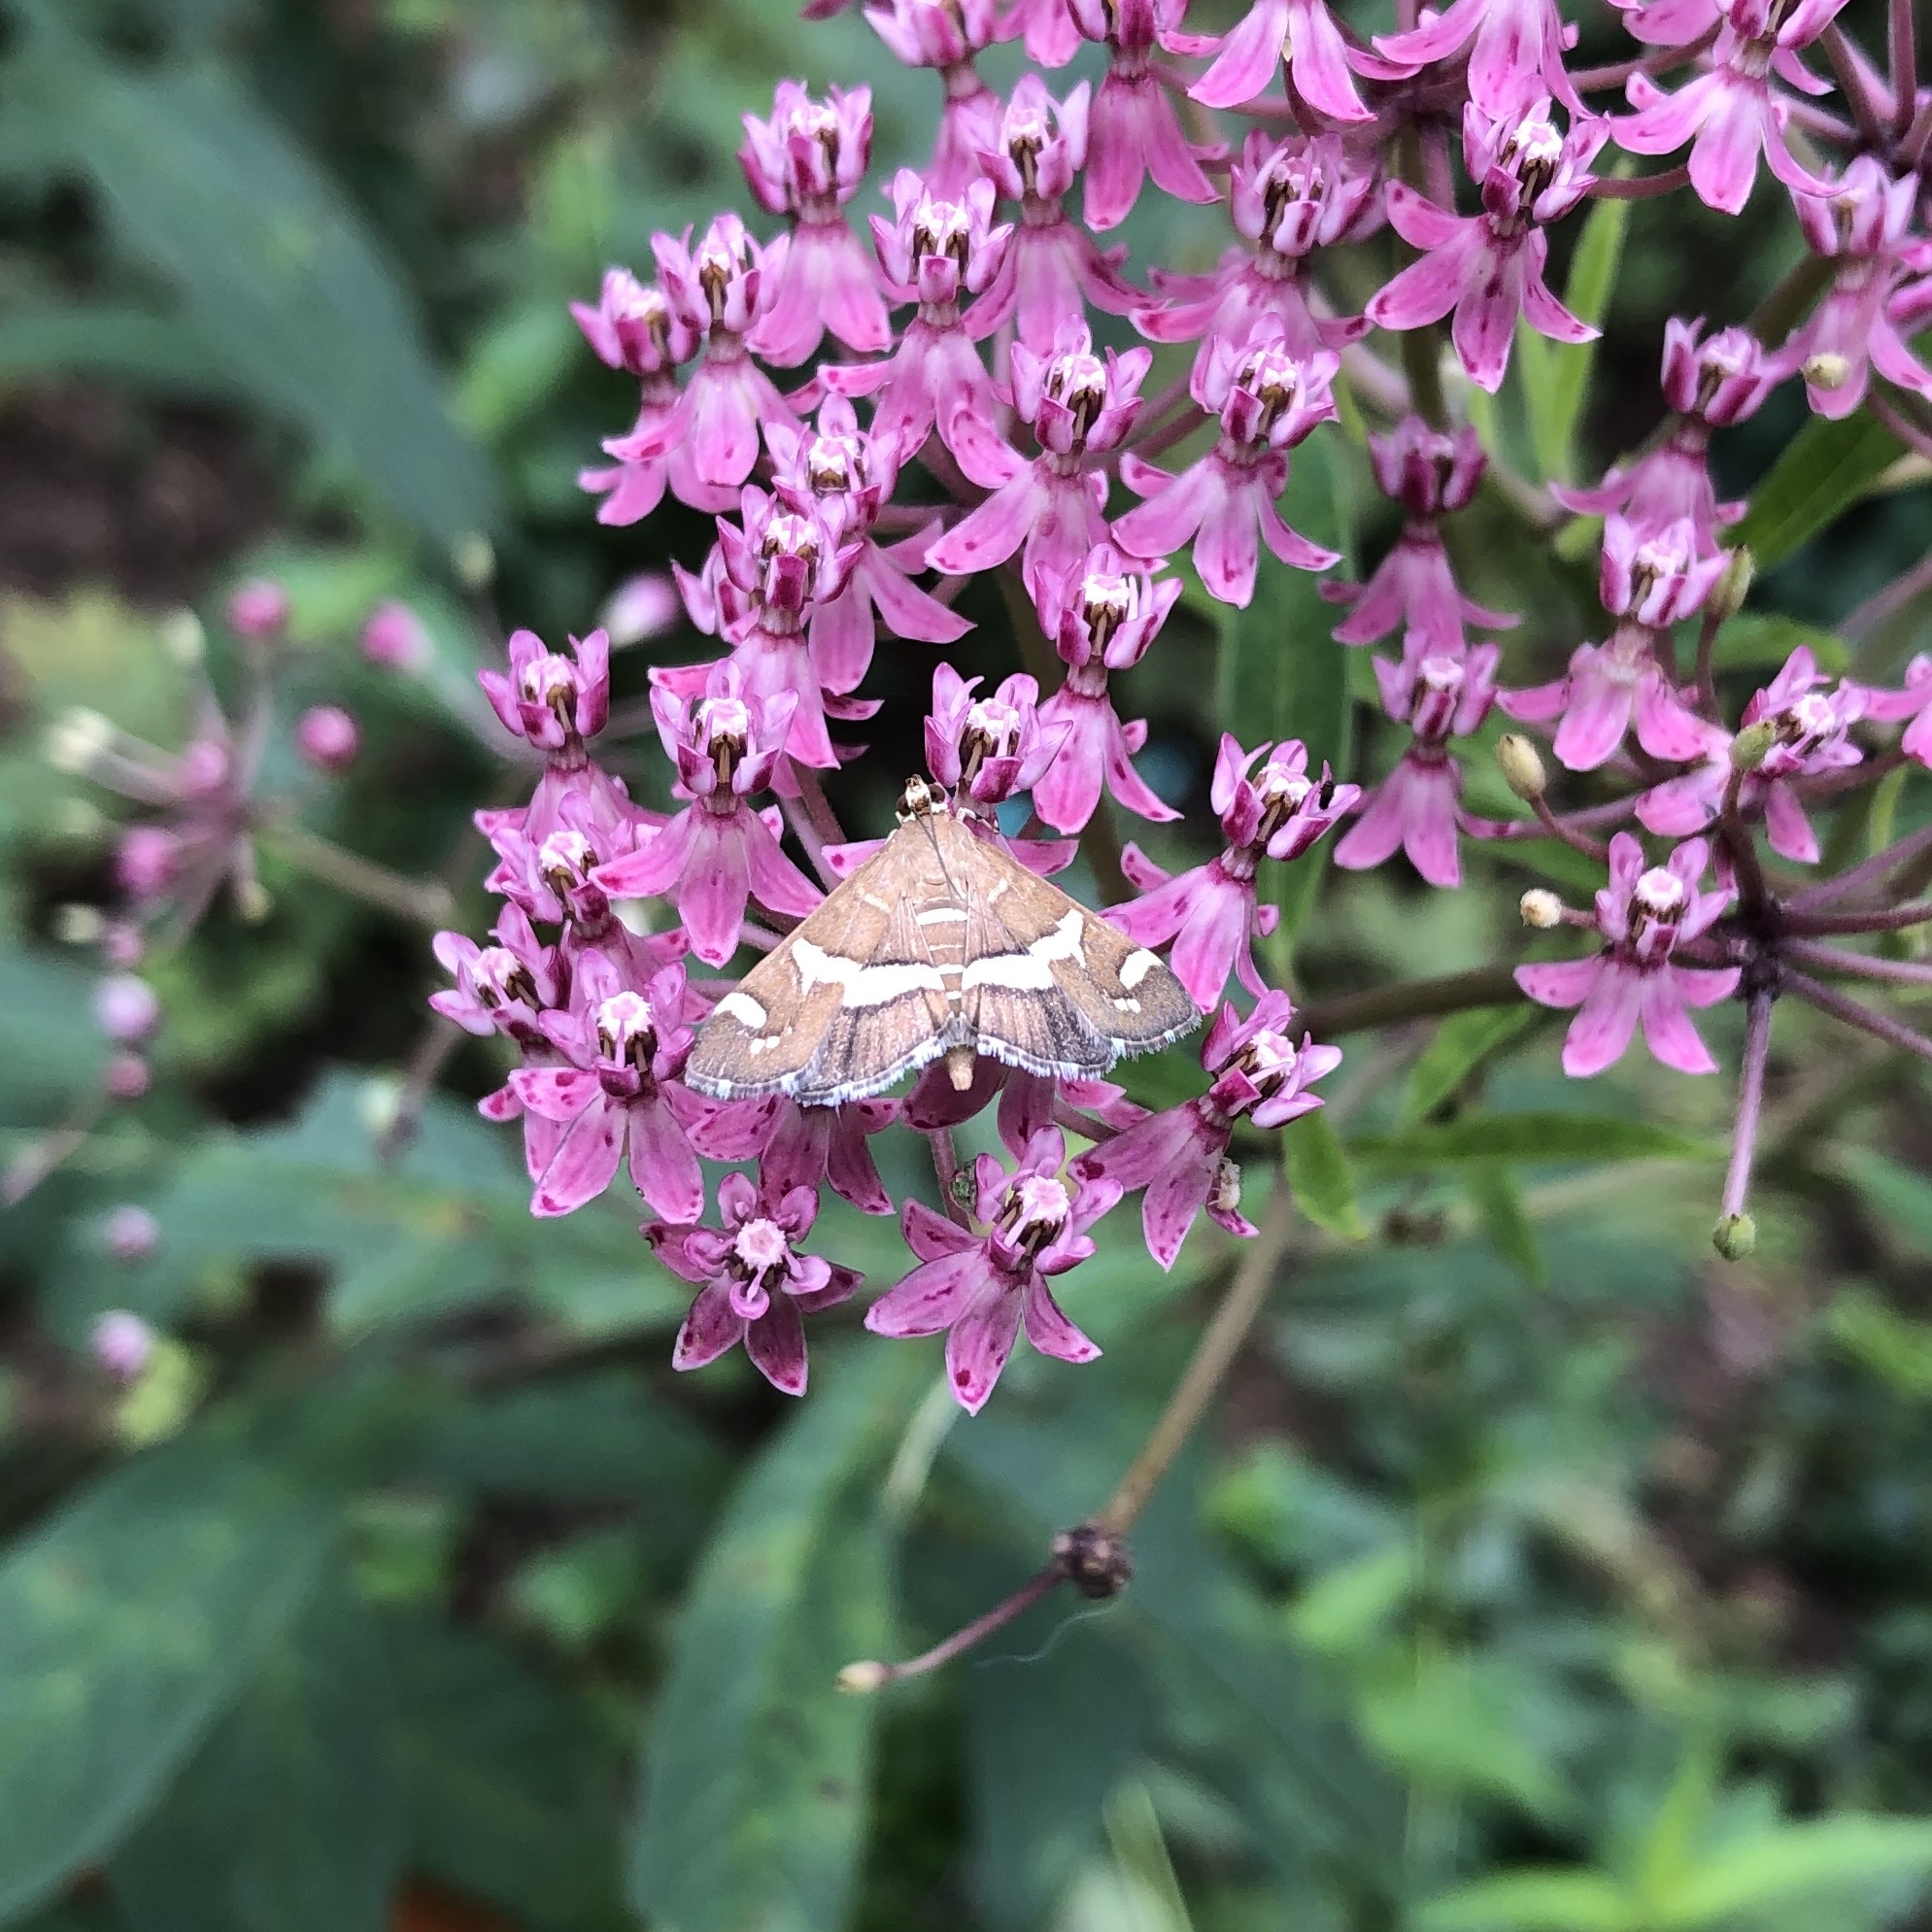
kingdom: Animalia
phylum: Arthropoda
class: Insecta
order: Lepidoptera
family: Crambidae
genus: Spoladea
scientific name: Spoladea recurvalis
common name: Beet webworm moth
